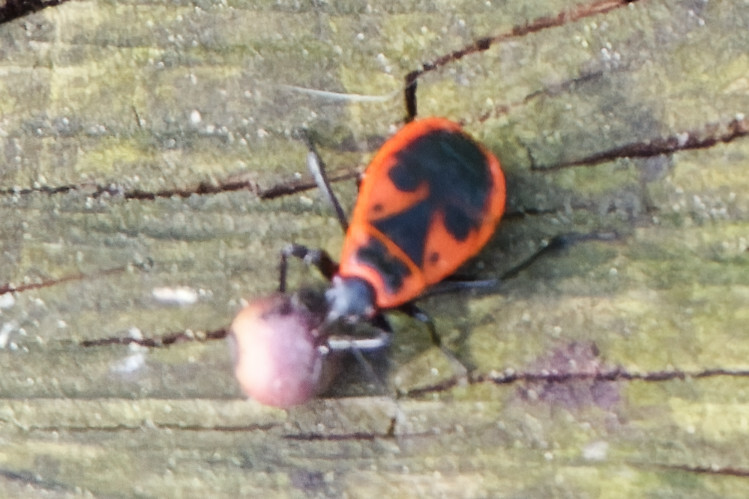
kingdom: Animalia
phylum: Arthropoda
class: Insecta
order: Hemiptera
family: Pyrrhocoridae
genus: Pyrrhocoris
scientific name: Pyrrhocoris apterus
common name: Firebug
